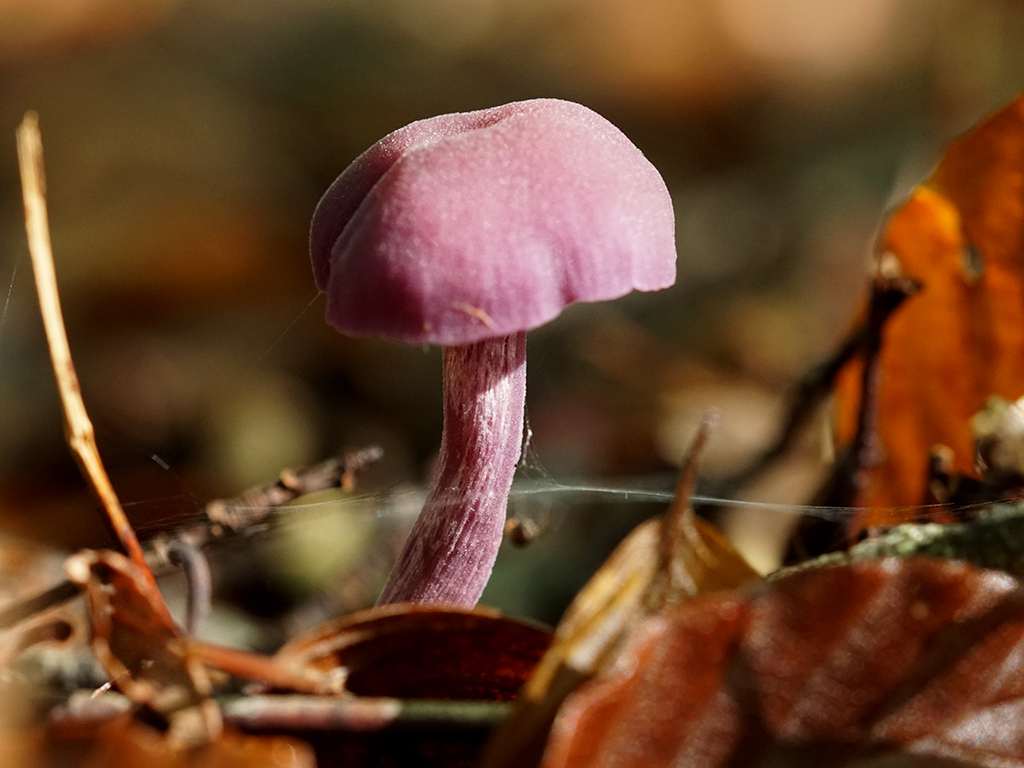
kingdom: Fungi
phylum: Basidiomycota
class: Agaricomycetes
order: Agaricales
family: Hydnangiaceae
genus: Laccaria
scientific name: Laccaria amethystina
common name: Amethyst deceiver
